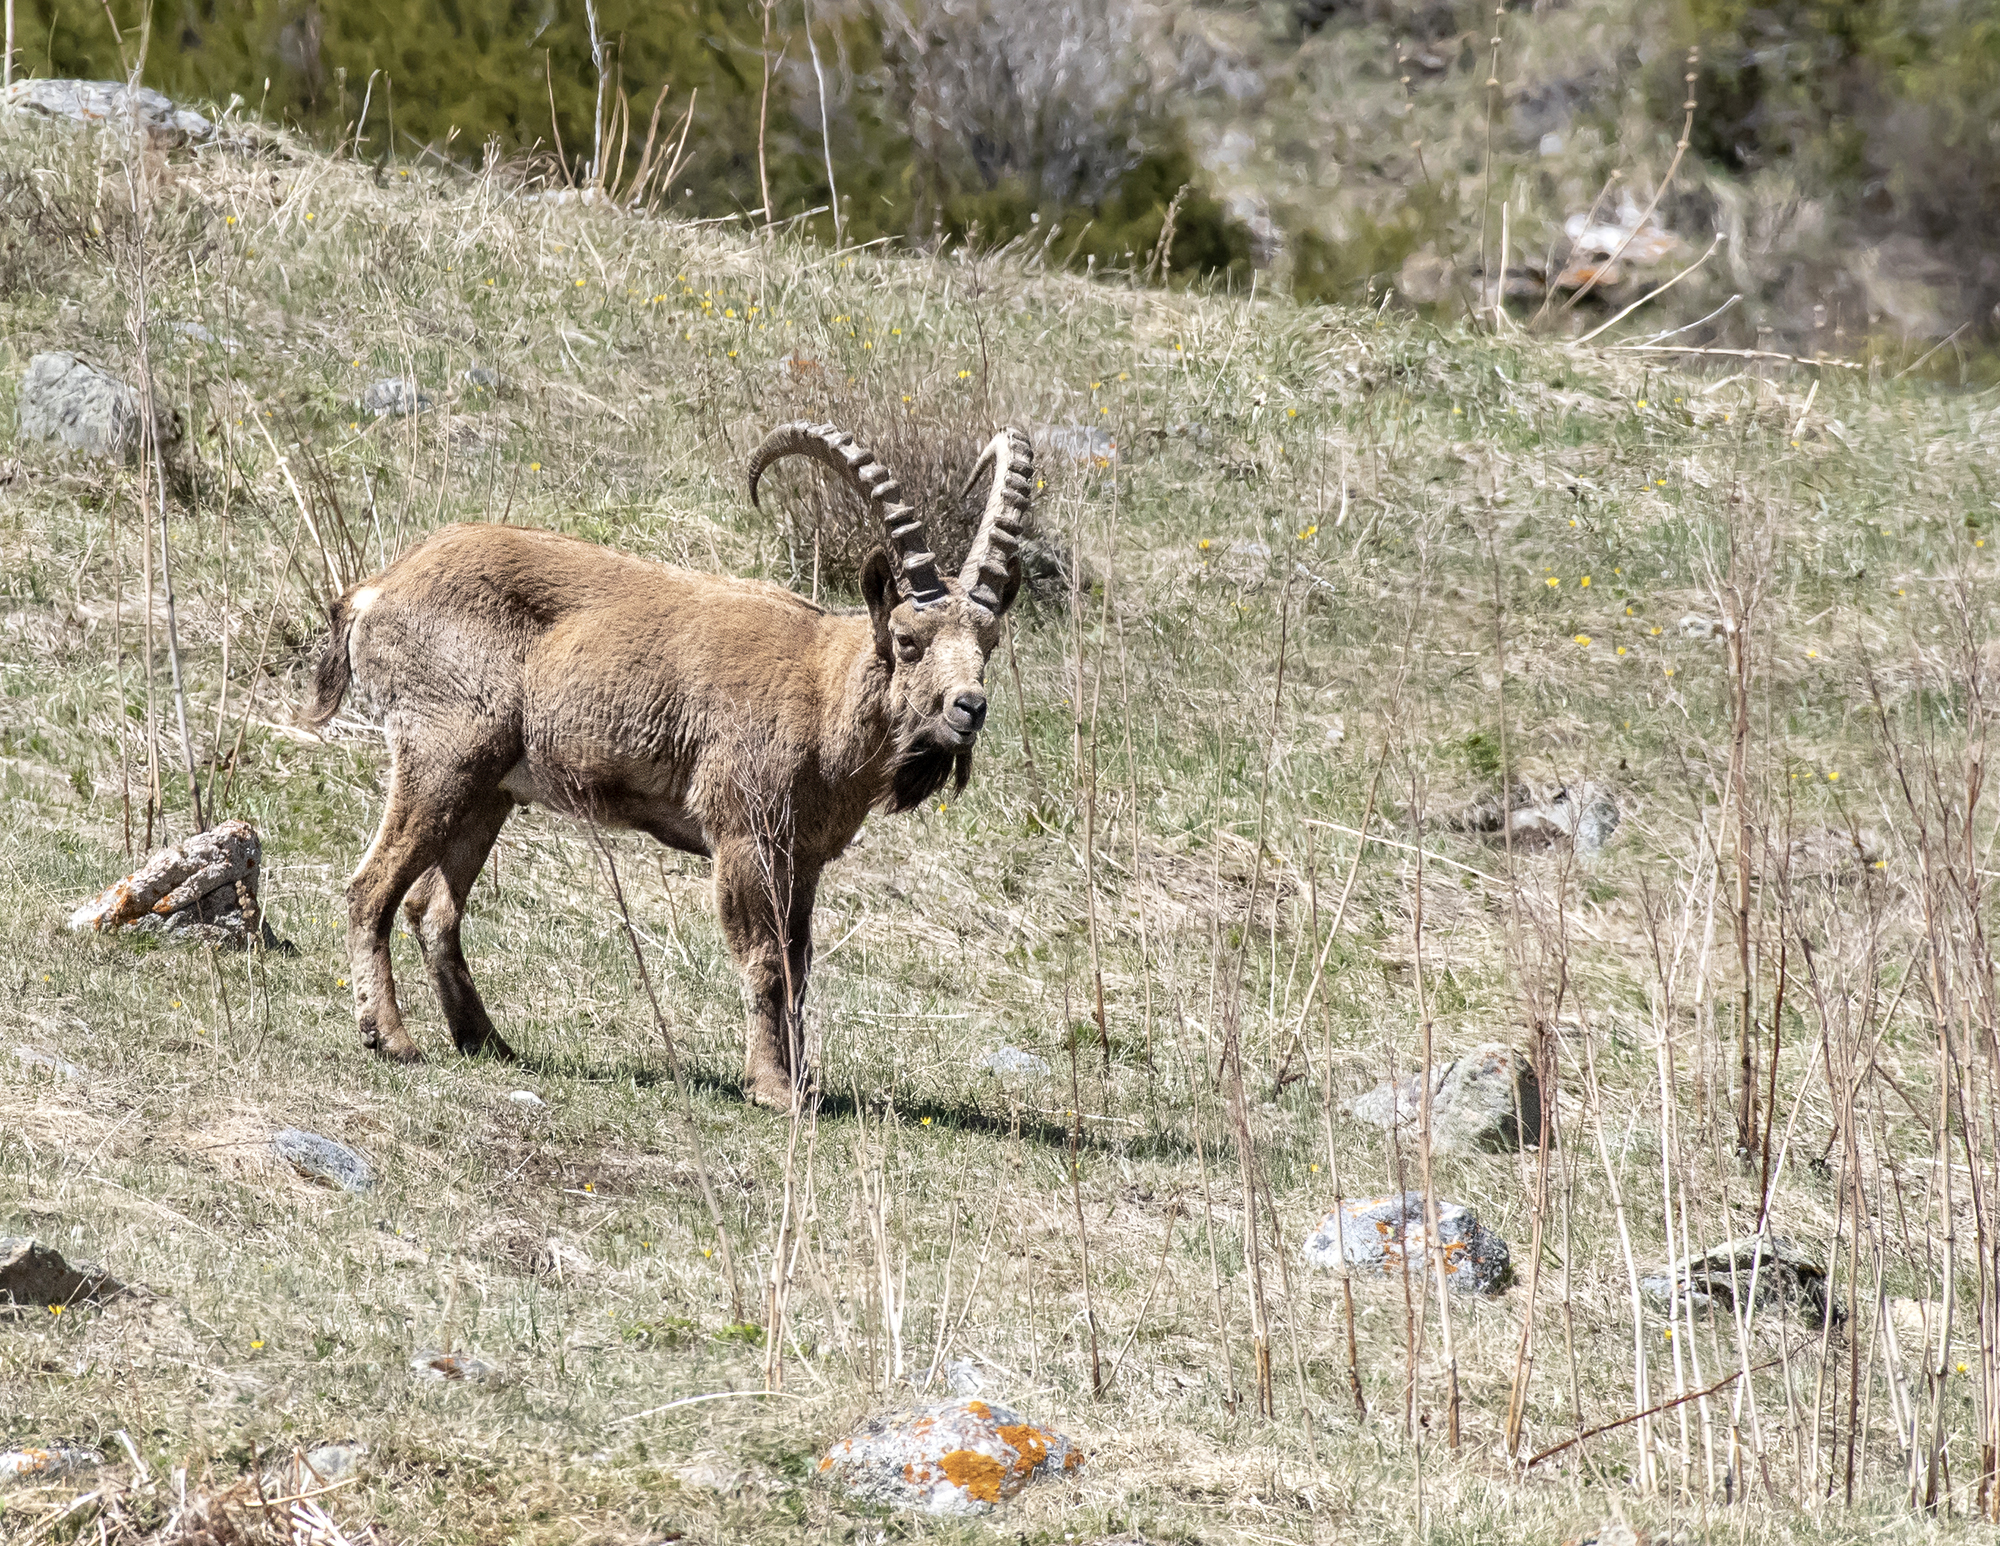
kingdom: Animalia
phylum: Chordata
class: Mammalia
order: Artiodactyla
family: Bovidae
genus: Capra
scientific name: Capra sibirica
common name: Siberian ibex
